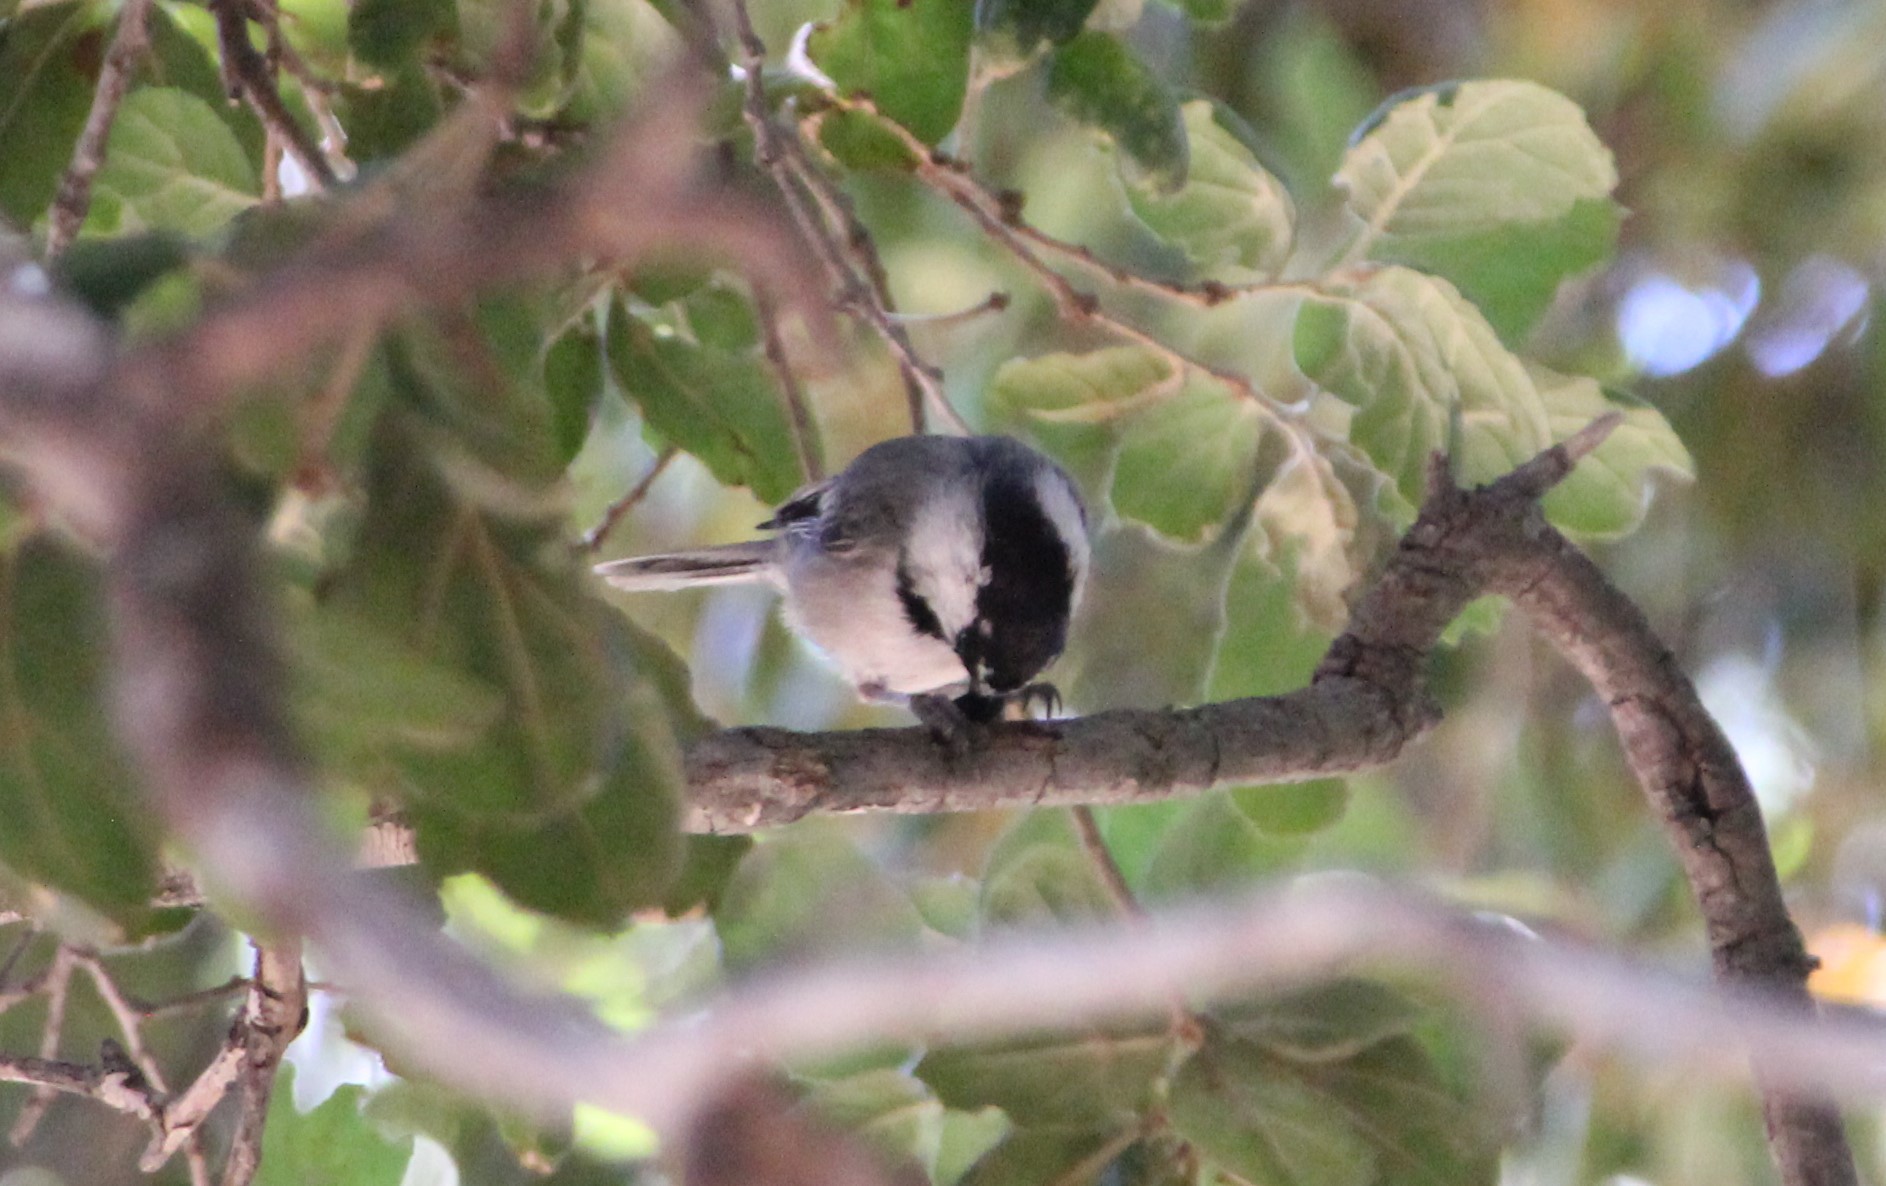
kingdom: Animalia
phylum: Chordata
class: Aves
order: Passeriformes
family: Paridae
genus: Poecile
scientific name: Poecile gambeli
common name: Mountain chickadee
